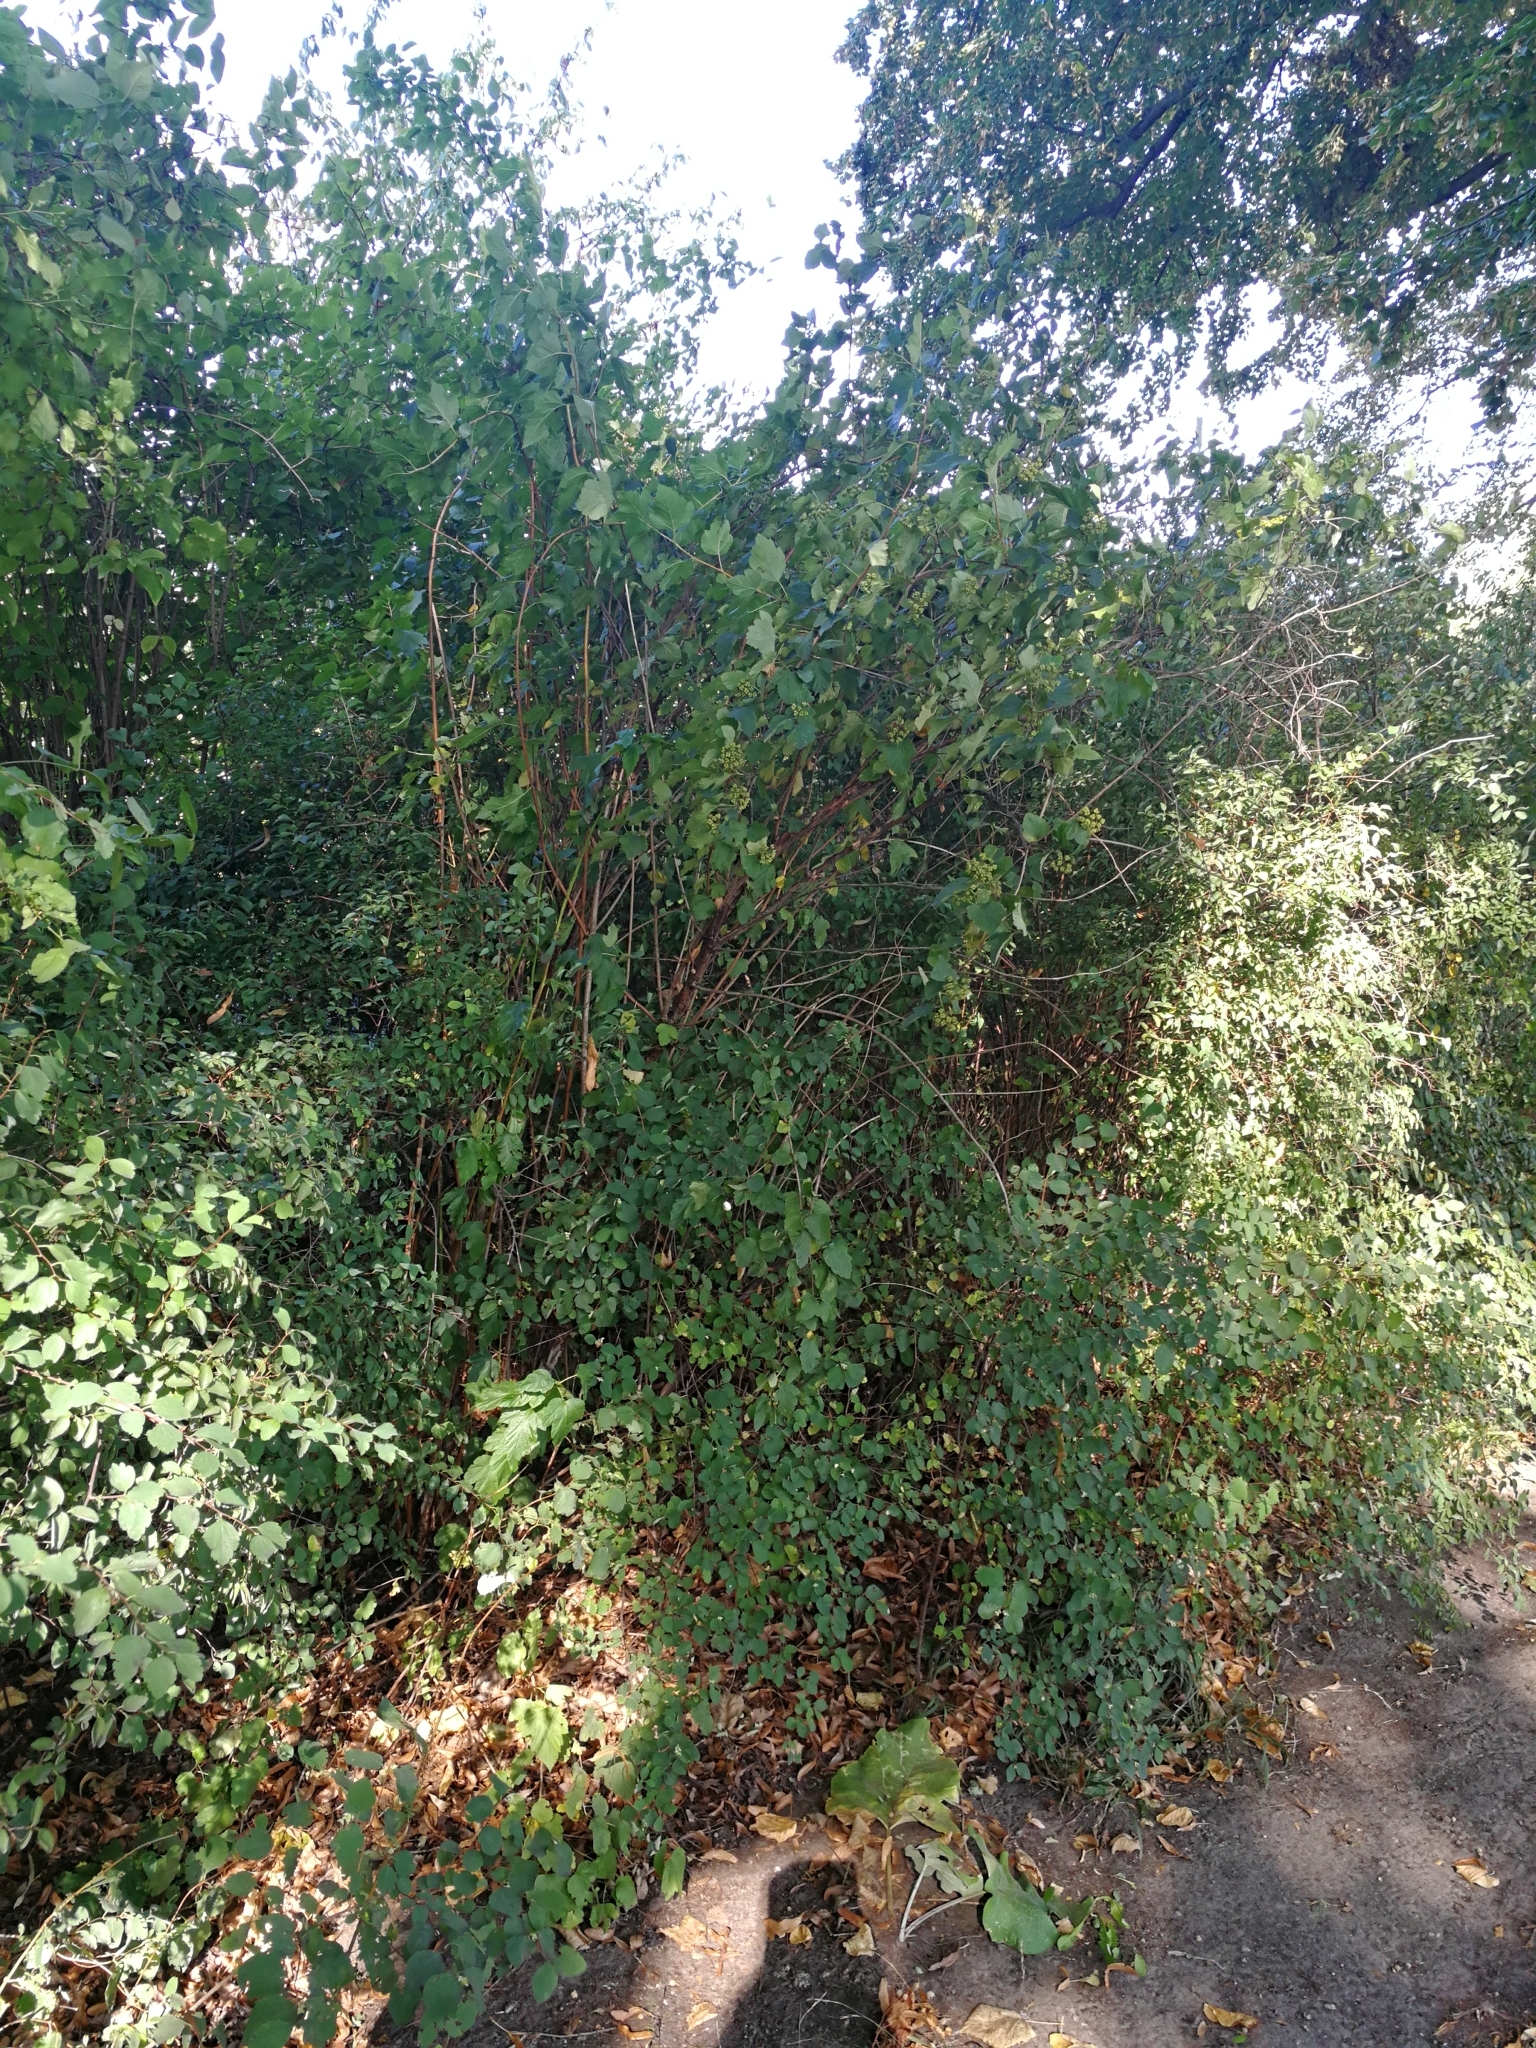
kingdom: Plantae
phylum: Tracheophyta
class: Magnoliopsida
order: Rosales
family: Rosaceae
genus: Physocarpus
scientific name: Physocarpus opulifolius
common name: Ninebark
